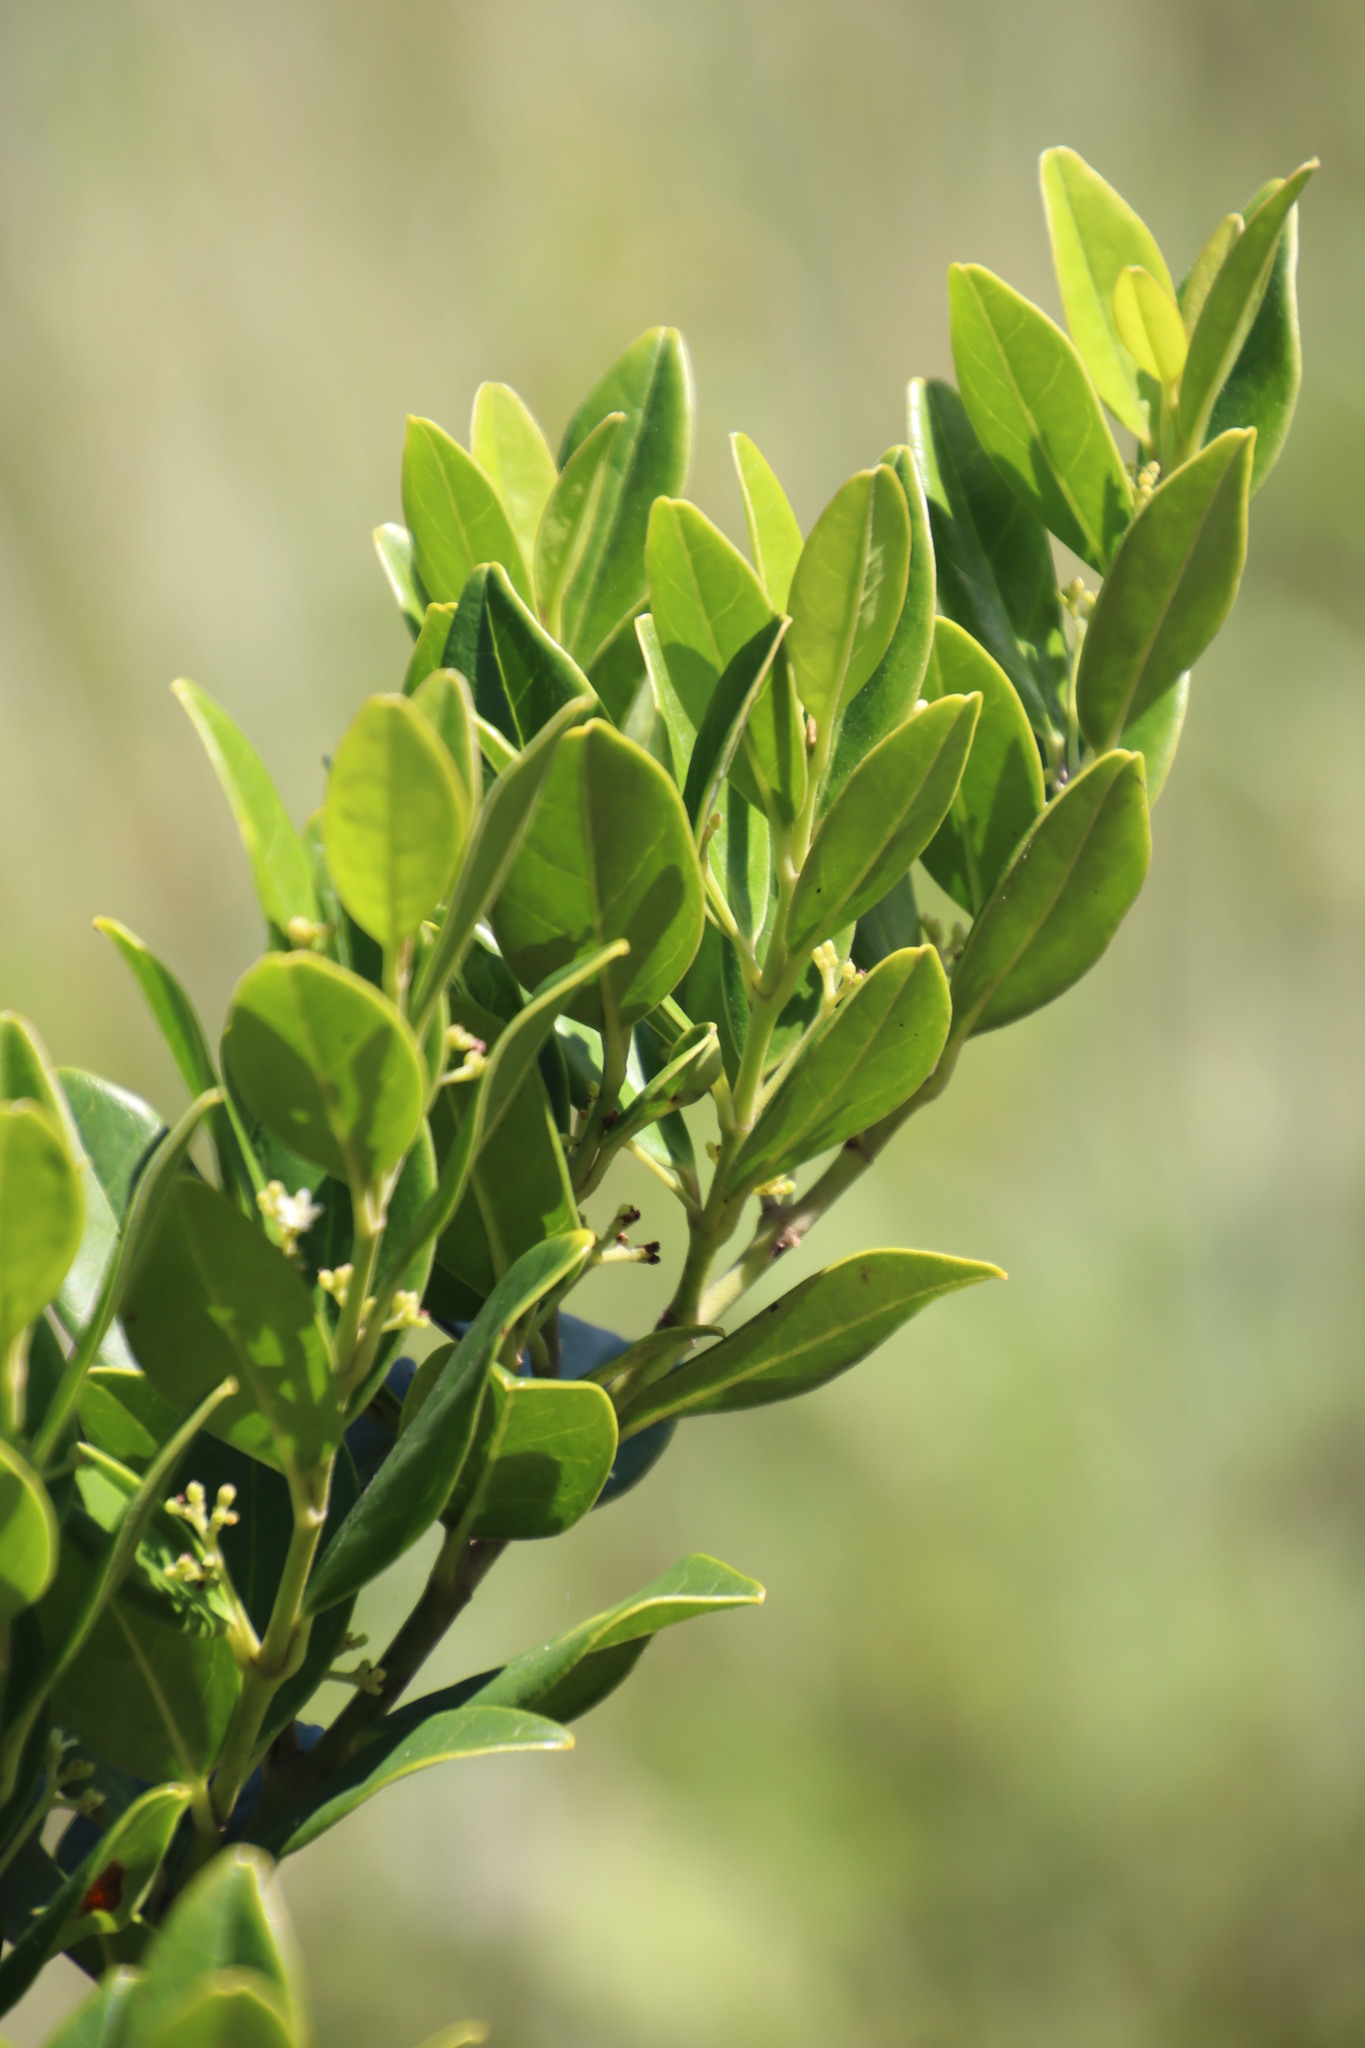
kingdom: Plantae
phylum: Tracheophyta
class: Magnoliopsida
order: Icacinales
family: Icacinaceae
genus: Cassinopsis
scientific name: Cassinopsis tinifolia
